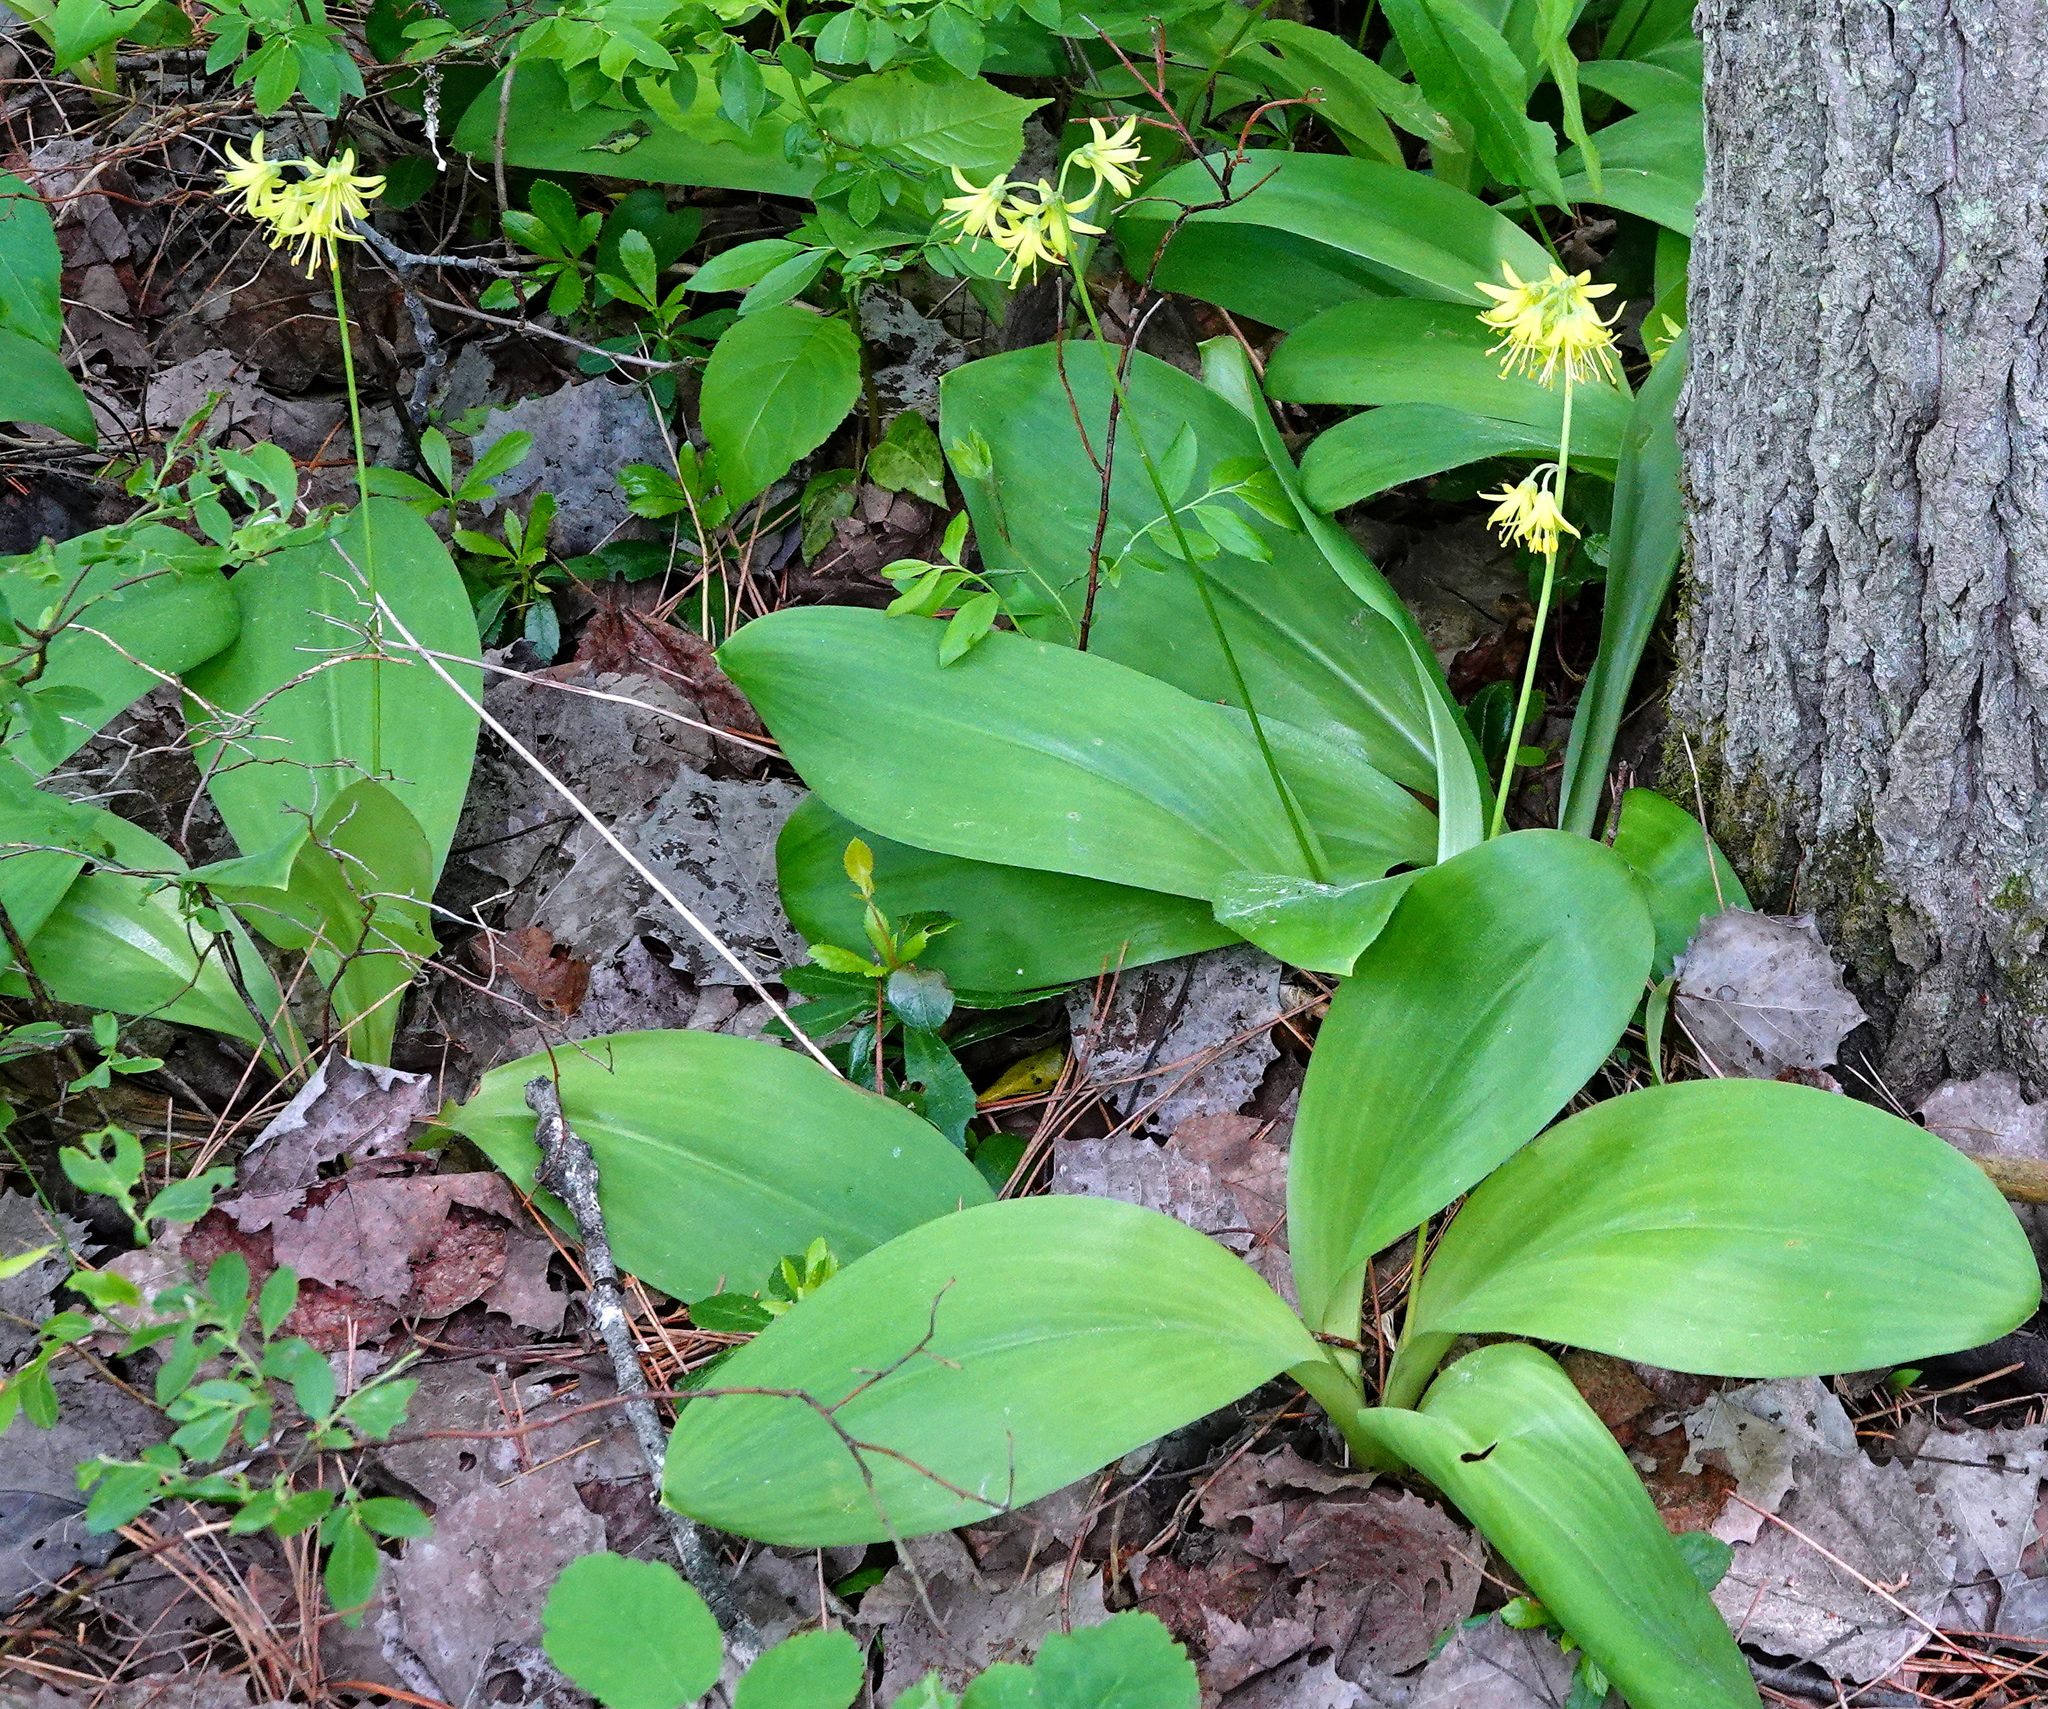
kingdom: Plantae
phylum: Tracheophyta
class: Liliopsida
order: Liliales
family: Liliaceae
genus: Clintonia
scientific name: Clintonia borealis
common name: Yellow clintonia
